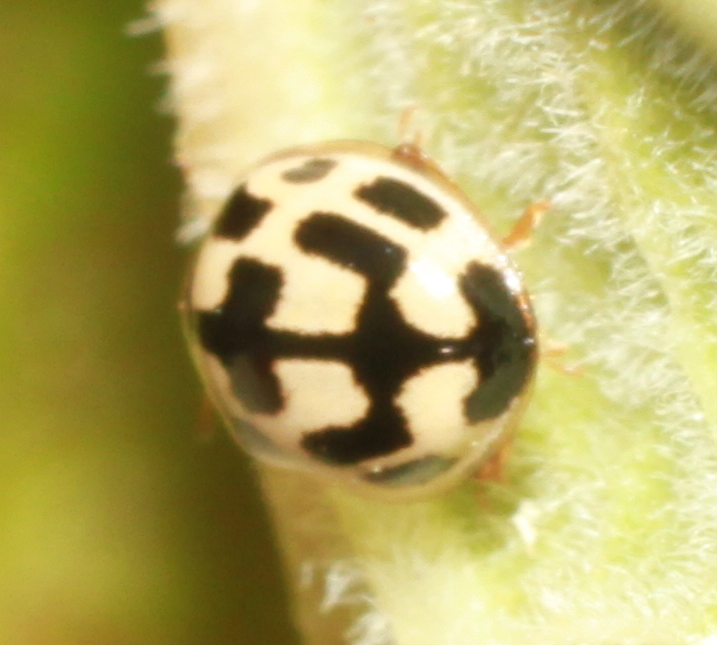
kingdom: Animalia
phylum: Arthropoda
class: Insecta
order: Coleoptera
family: Coccinellidae
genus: Propylaea
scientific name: Propylaea quatuordecimpunctata
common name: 14-spotted ladybird beetle
